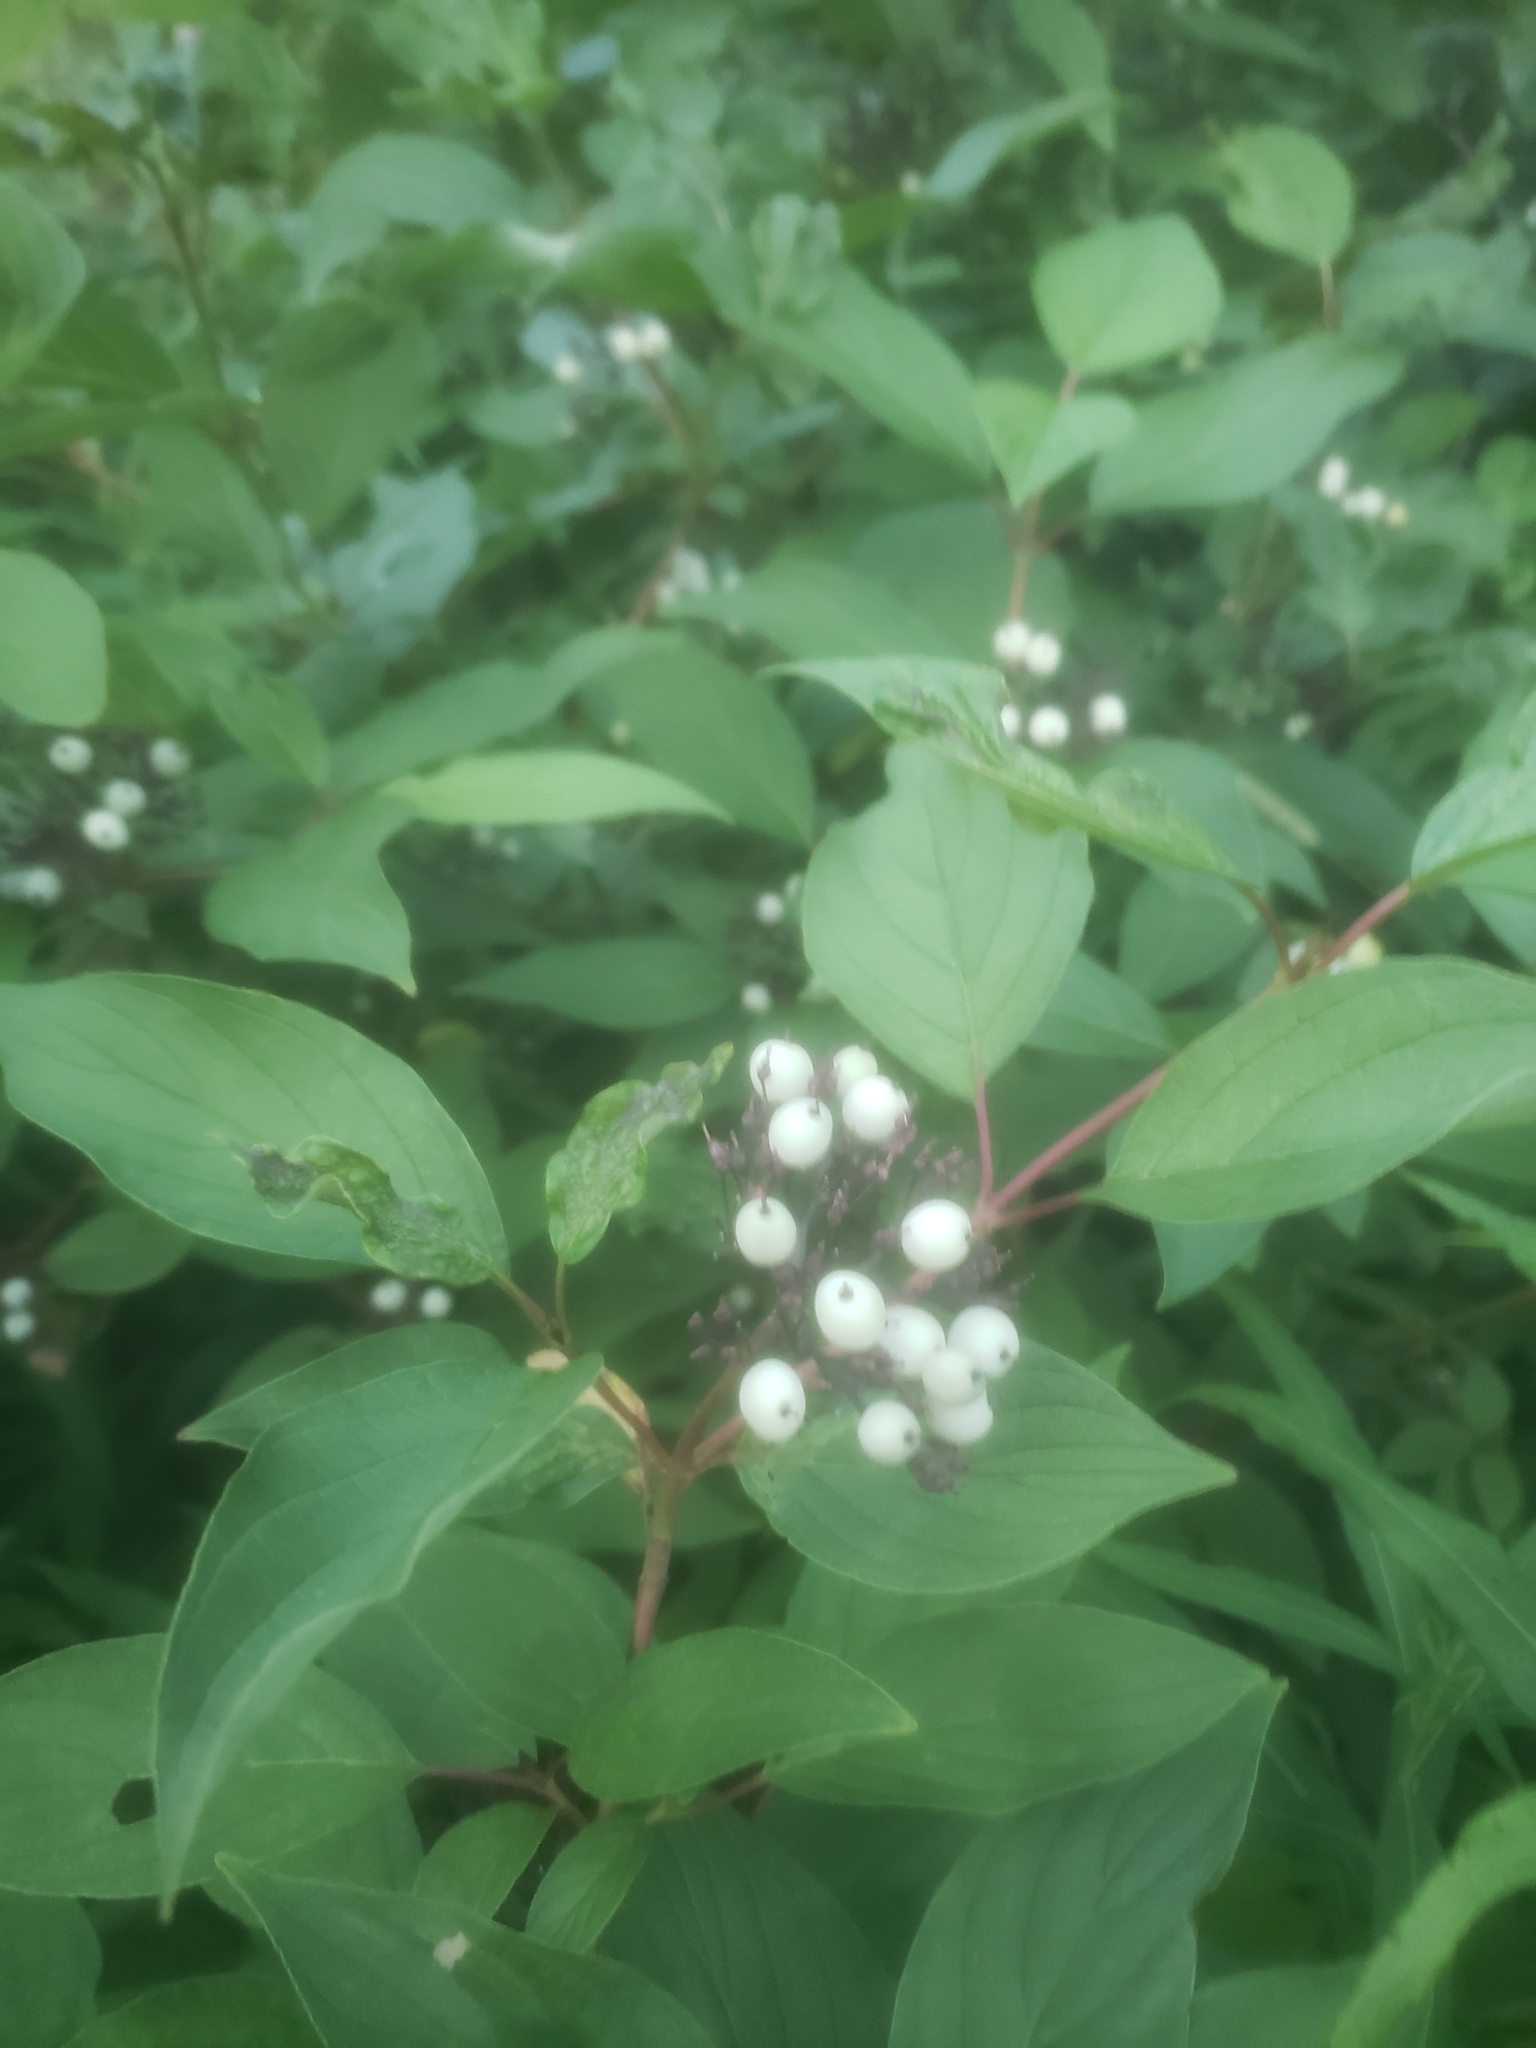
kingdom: Plantae
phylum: Tracheophyta
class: Magnoliopsida
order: Cornales
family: Cornaceae
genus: Cornus
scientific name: Cornus sericea
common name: Red-osier dogwood
